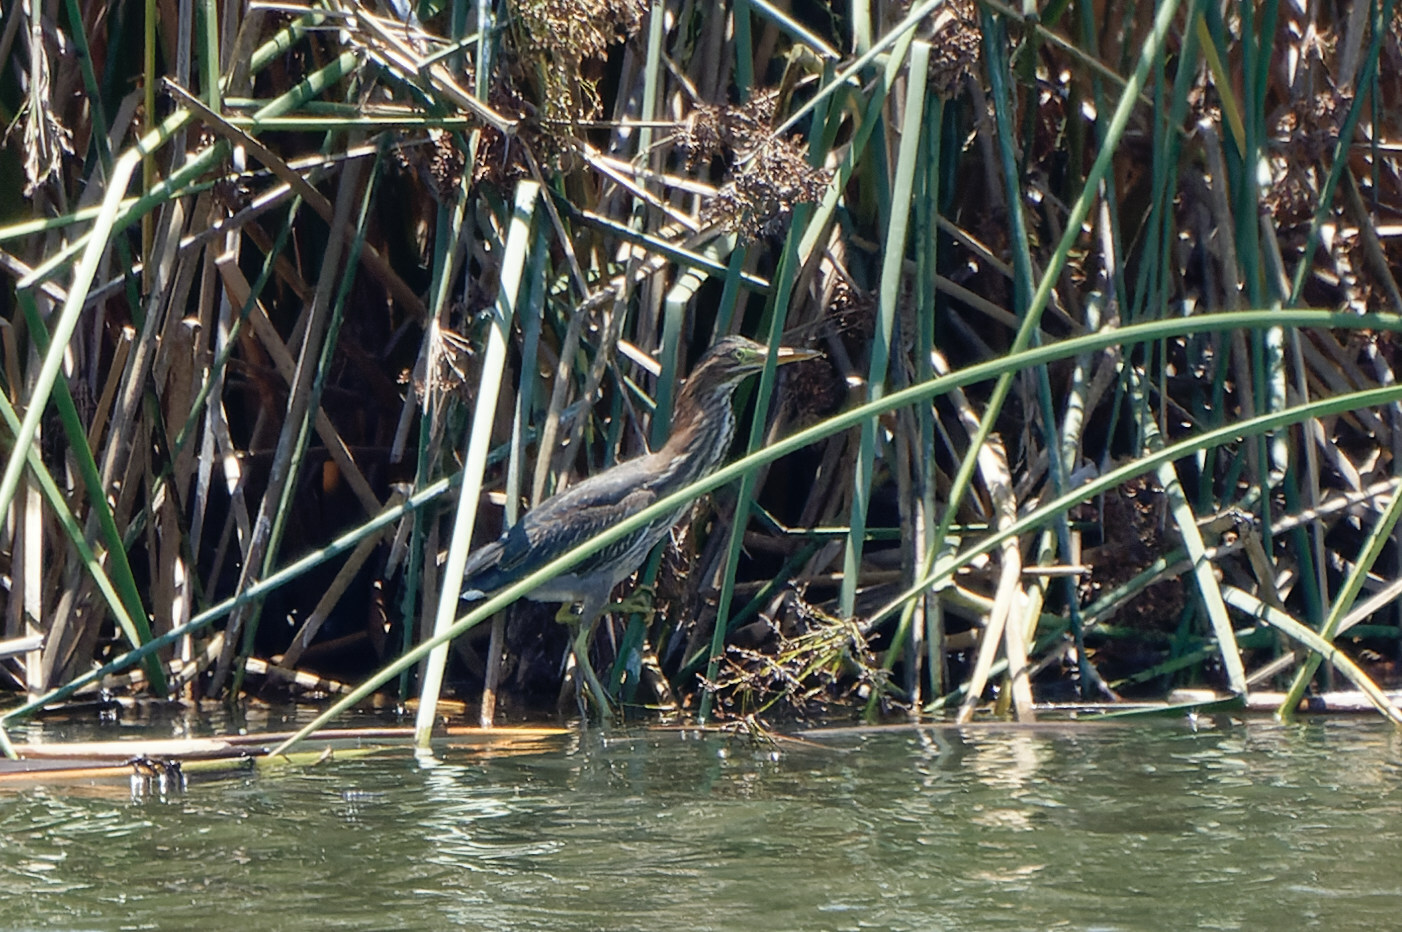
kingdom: Animalia
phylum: Chordata
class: Aves
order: Pelecaniformes
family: Ardeidae
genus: Butorides
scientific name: Butorides virescens
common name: Green heron
